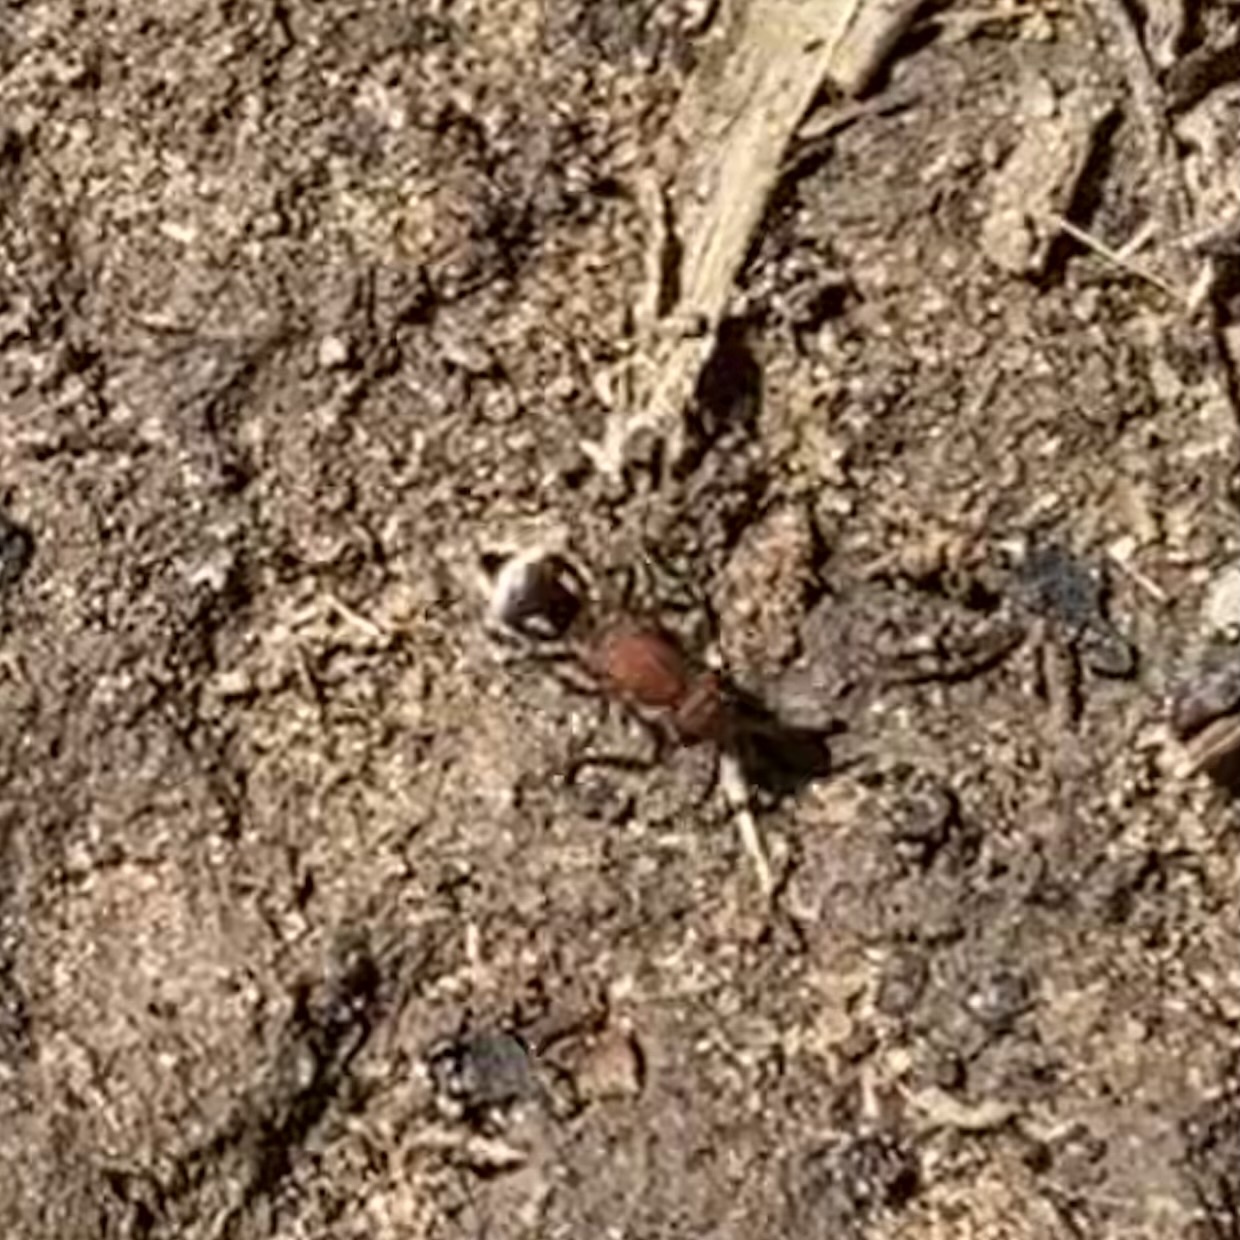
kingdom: Animalia
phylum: Arthropoda
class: Insecta
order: Hymenoptera
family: Mutillidae
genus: Timulla
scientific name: Timulla
